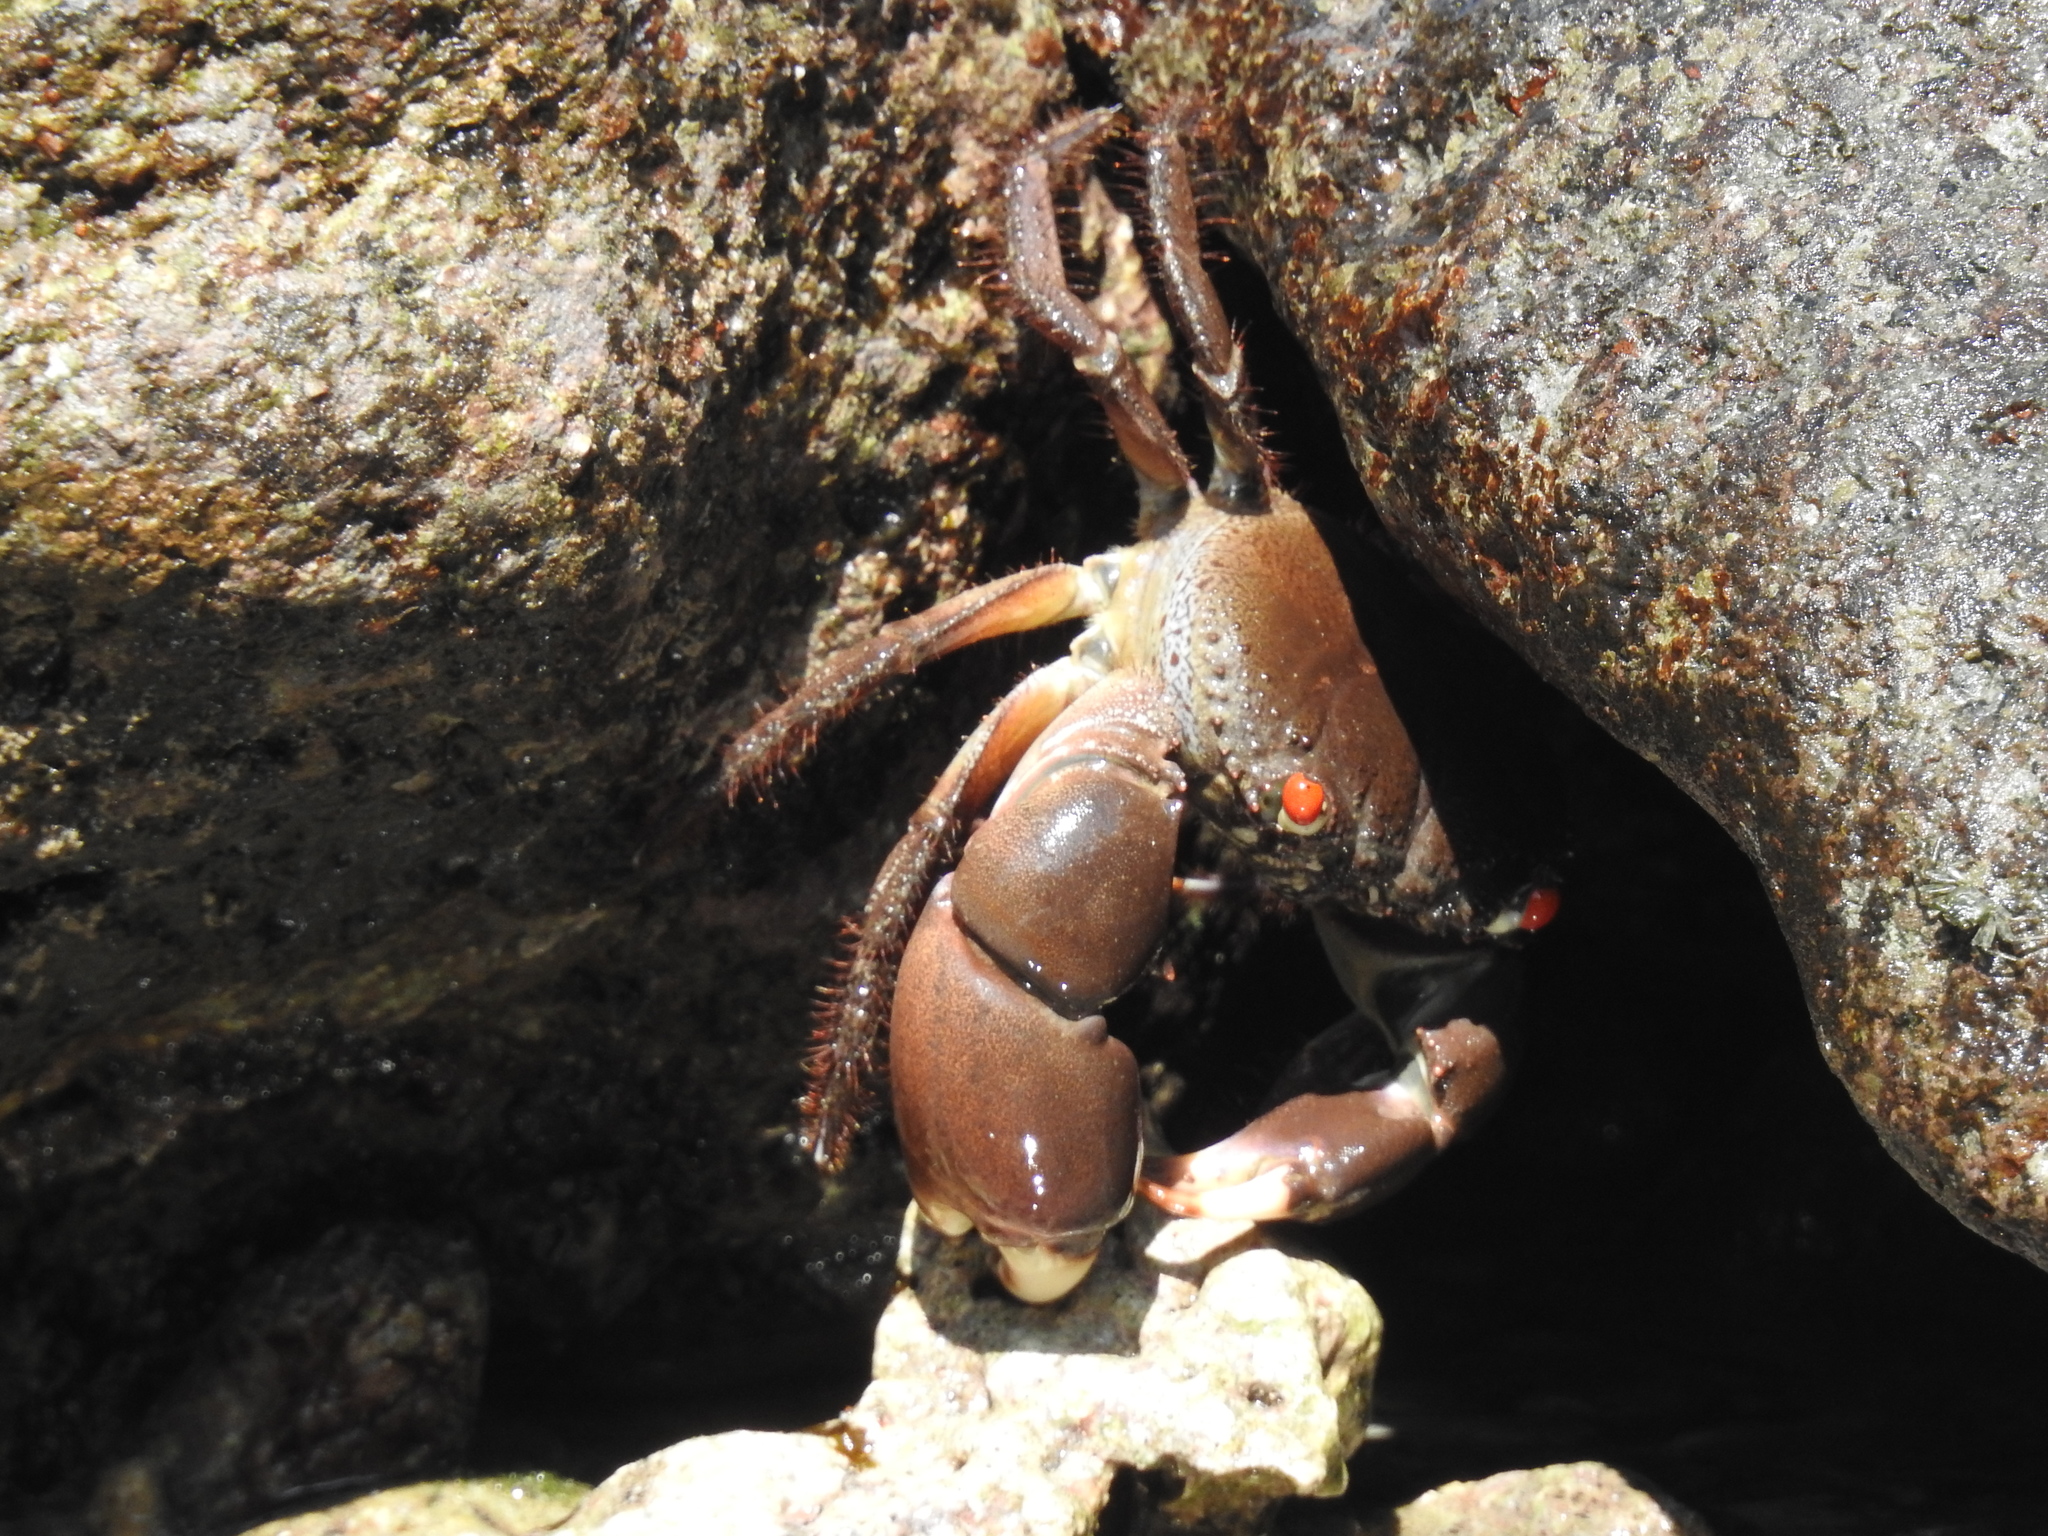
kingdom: Animalia
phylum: Arthropoda
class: Malacostraca
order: Decapoda
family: Eriphiidae
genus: Eriphia
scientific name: Eriphia sebana
